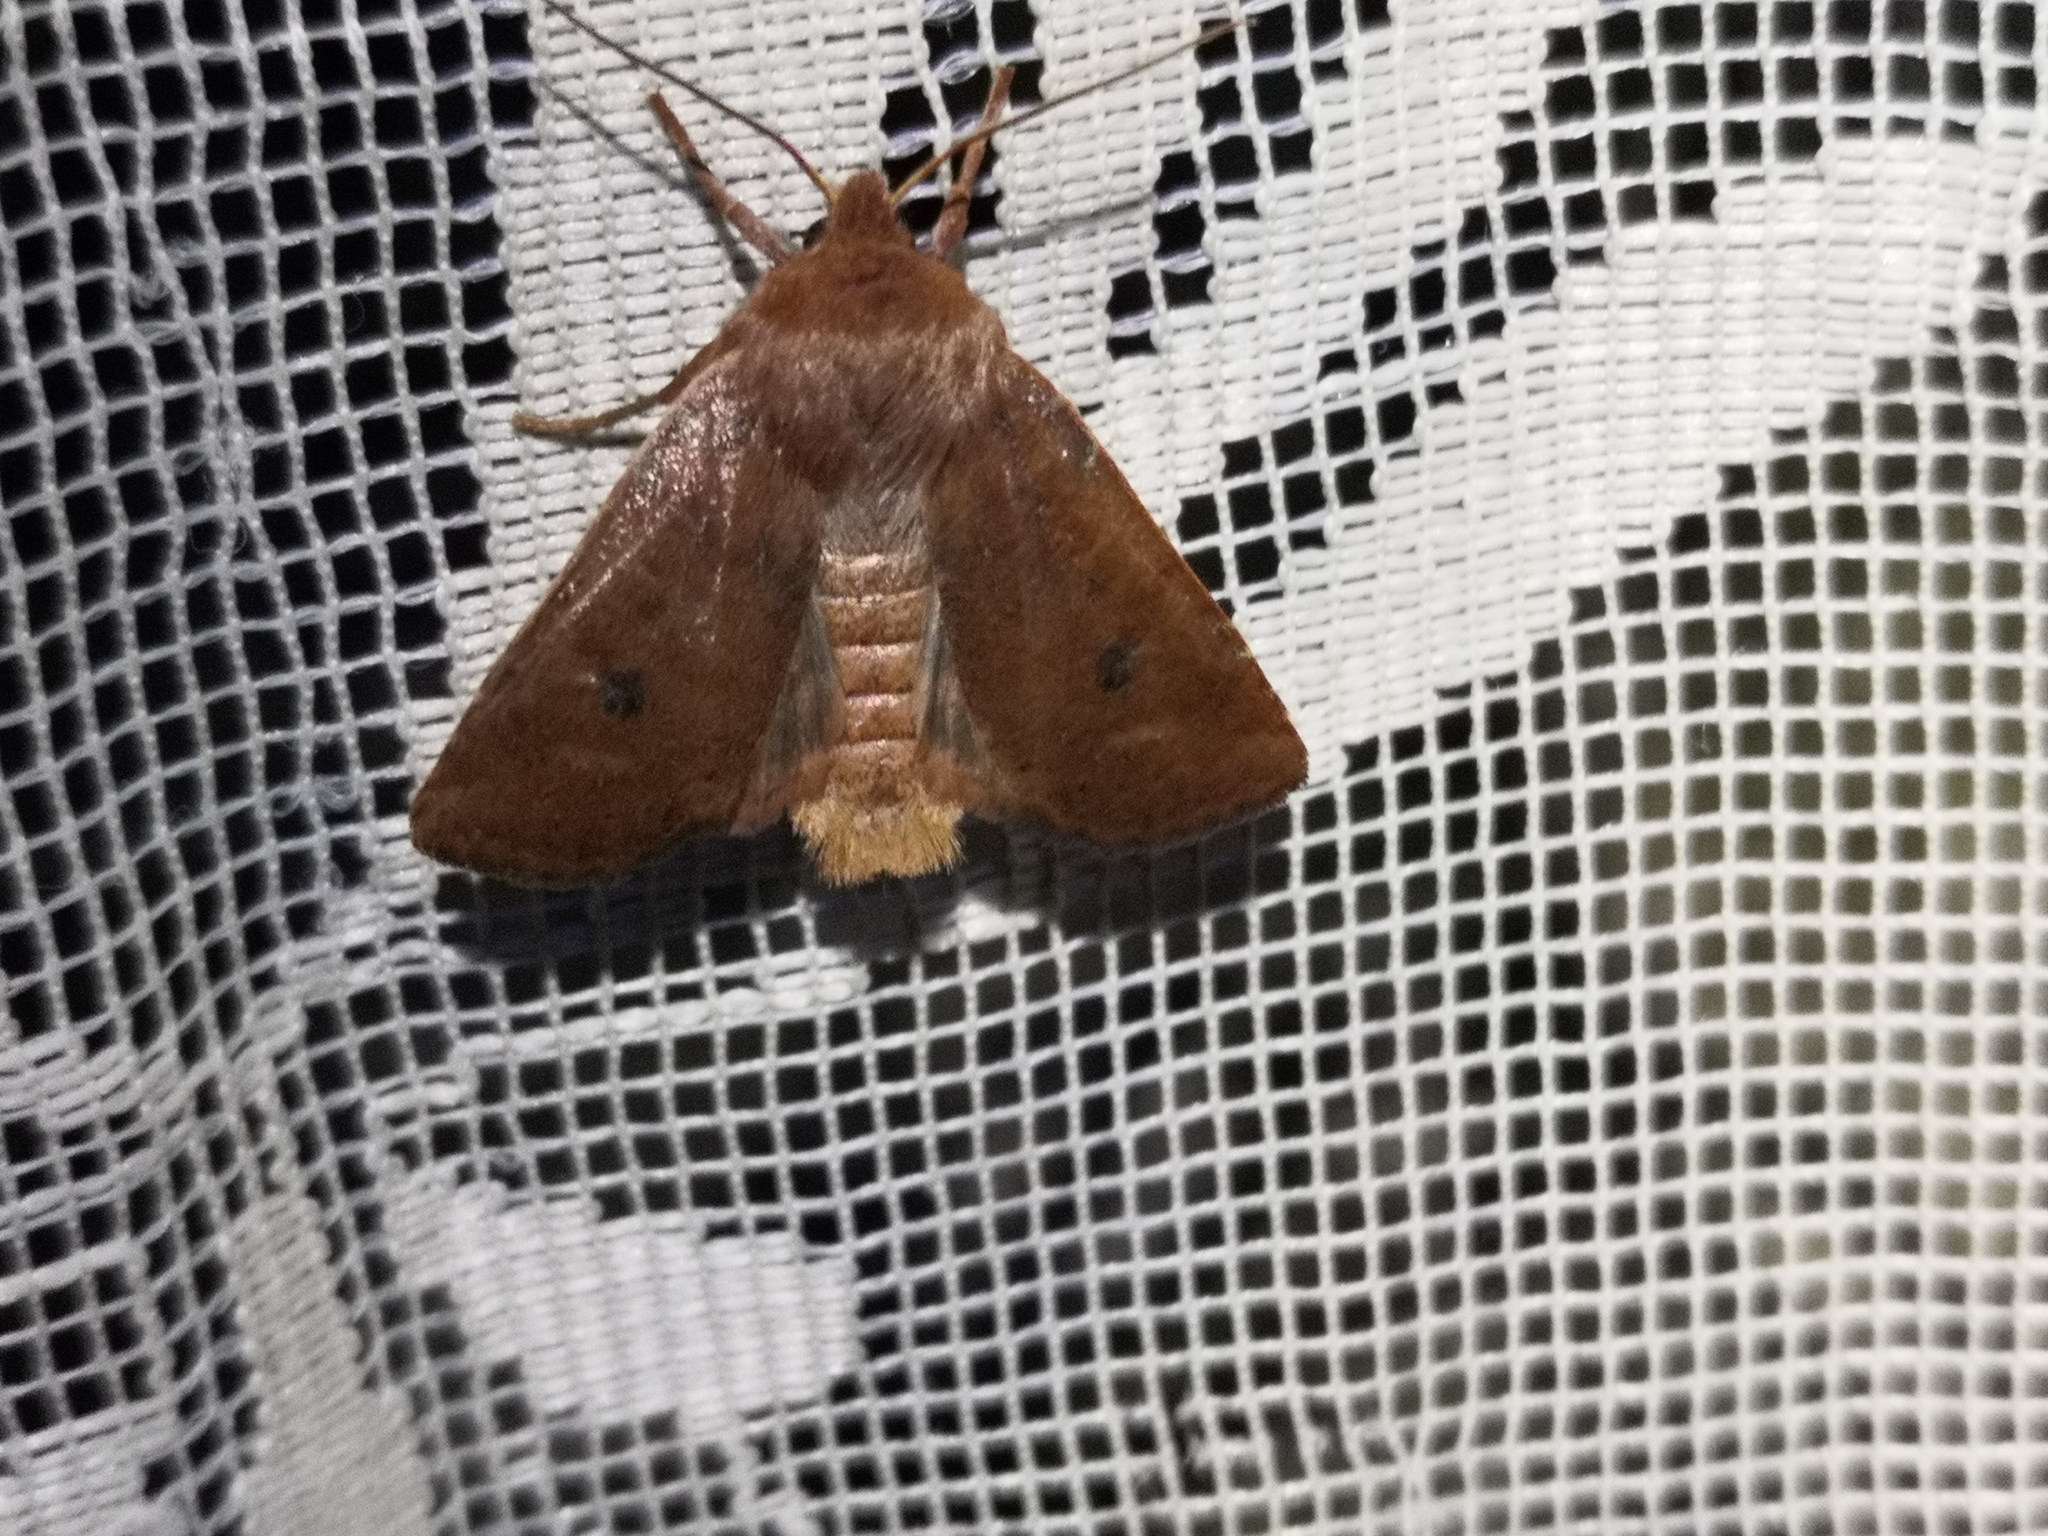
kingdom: Animalia
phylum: Arthropoda
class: Insecta
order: Lepidoptera
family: Noctuidae
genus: Conistra
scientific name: Conistra vaccinii
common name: Chestnut
